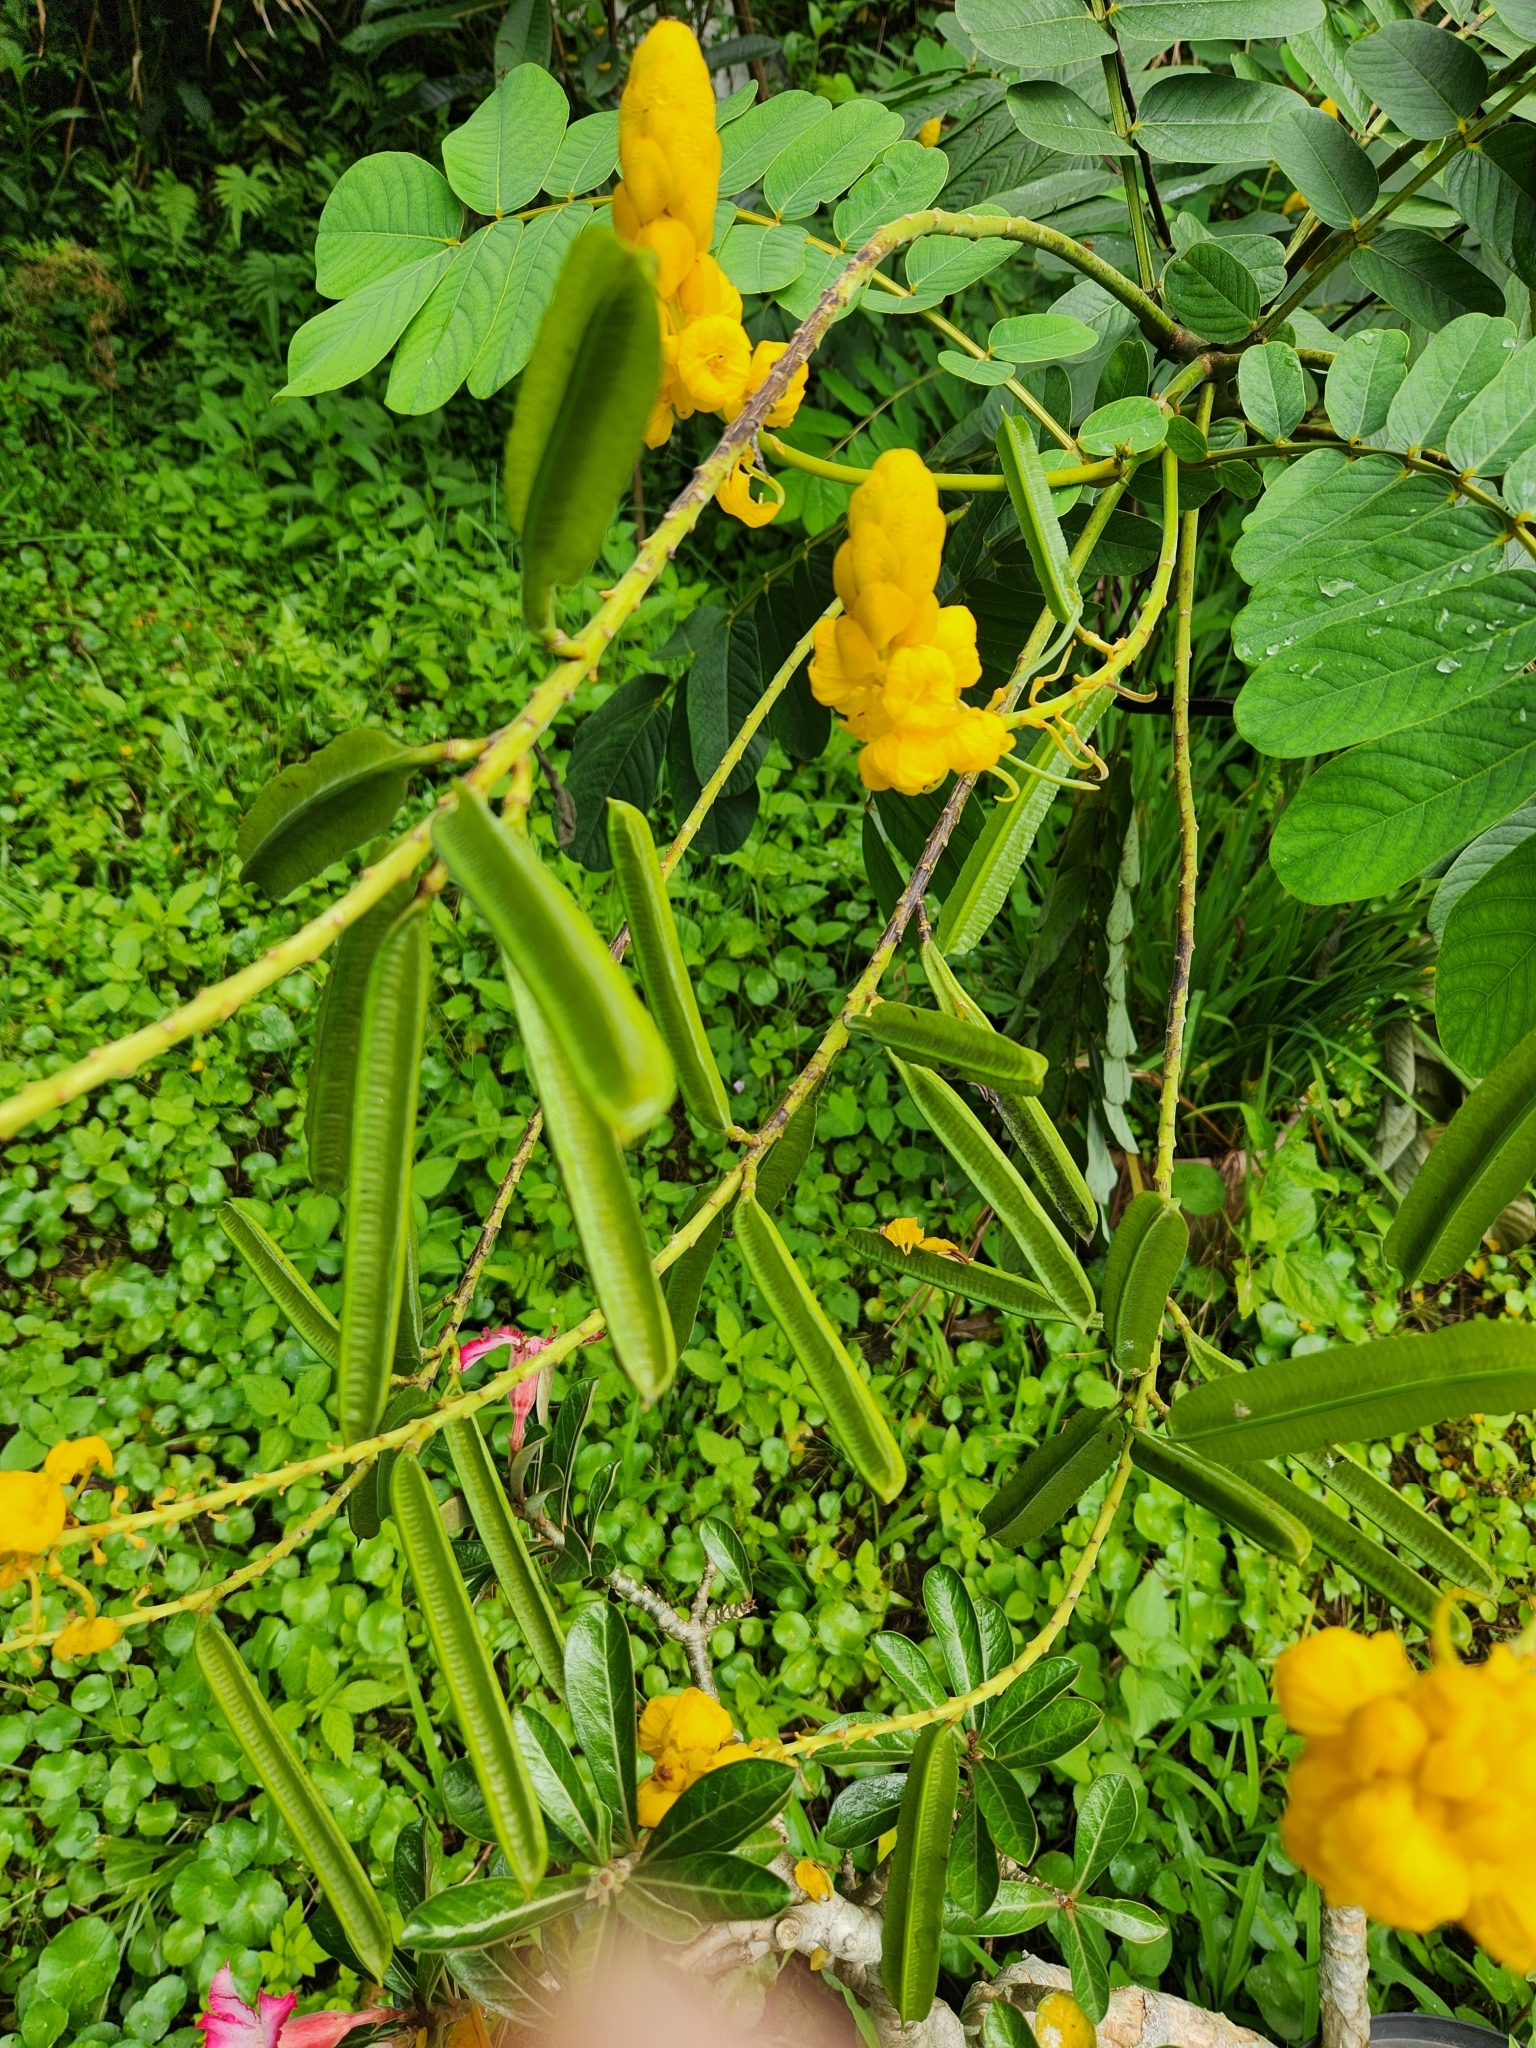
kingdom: Plantae
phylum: Tracheophyta
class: Magnoliopsida
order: Fabales
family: Fabaceae
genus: Senna
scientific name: Senna alata
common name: Emperor's candlesticks
